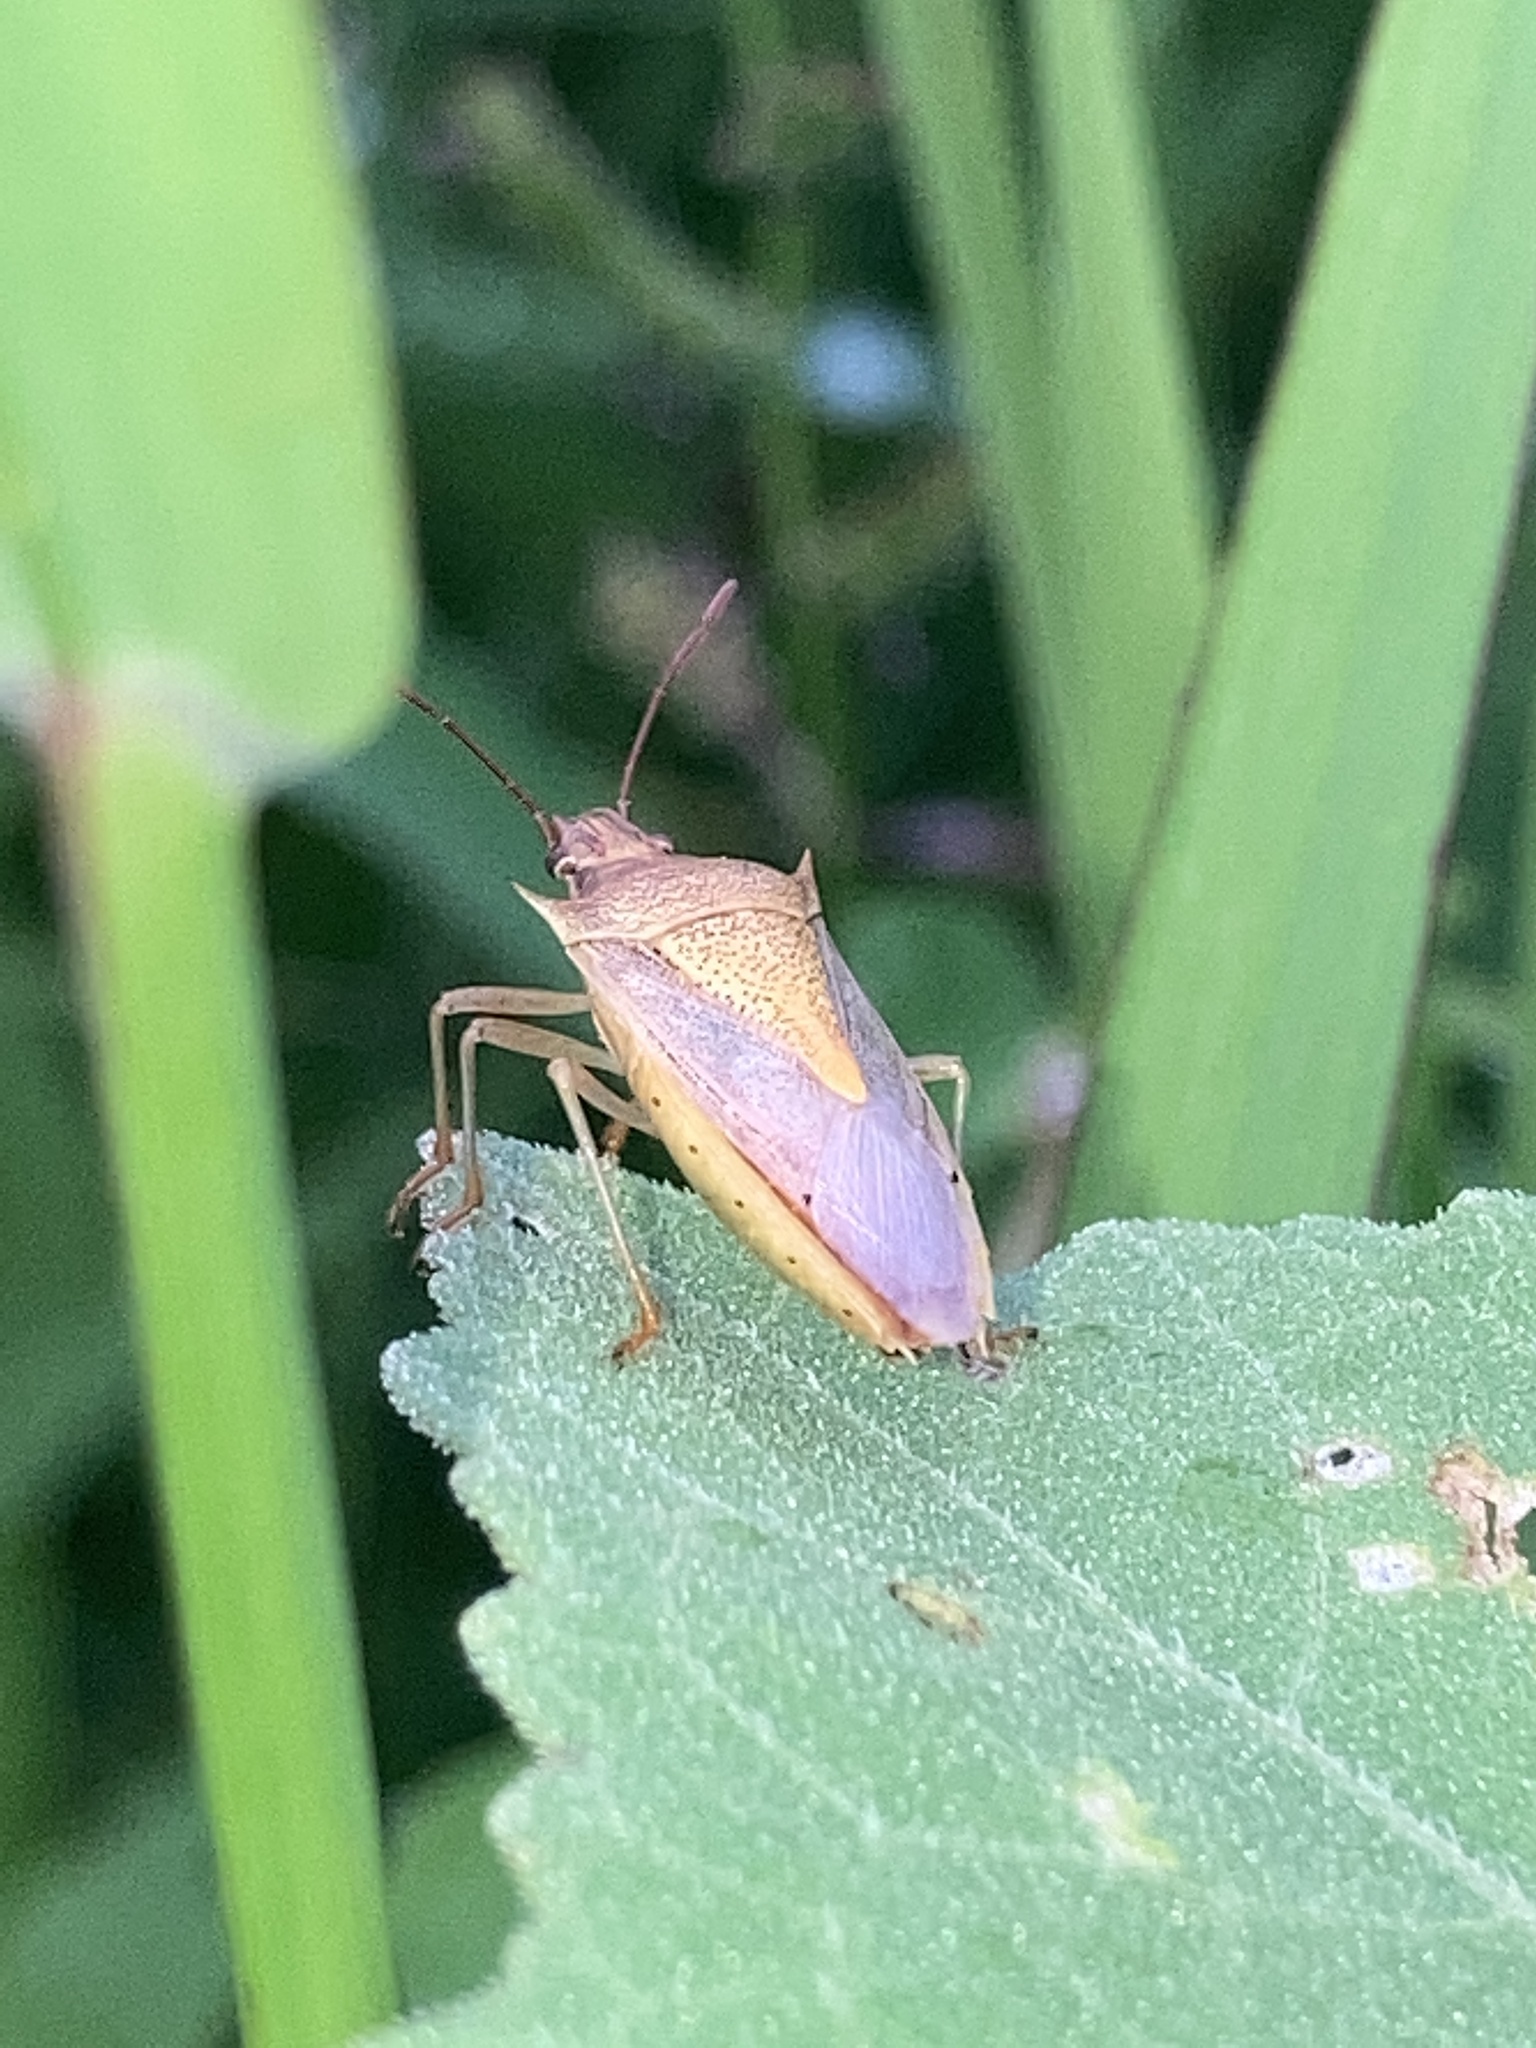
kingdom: Animalia
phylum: Arthropoda
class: Insecta
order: Hemiptera
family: Pentatomidae
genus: Oebalus
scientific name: Oebalus pugnax
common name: Rice stink bug
